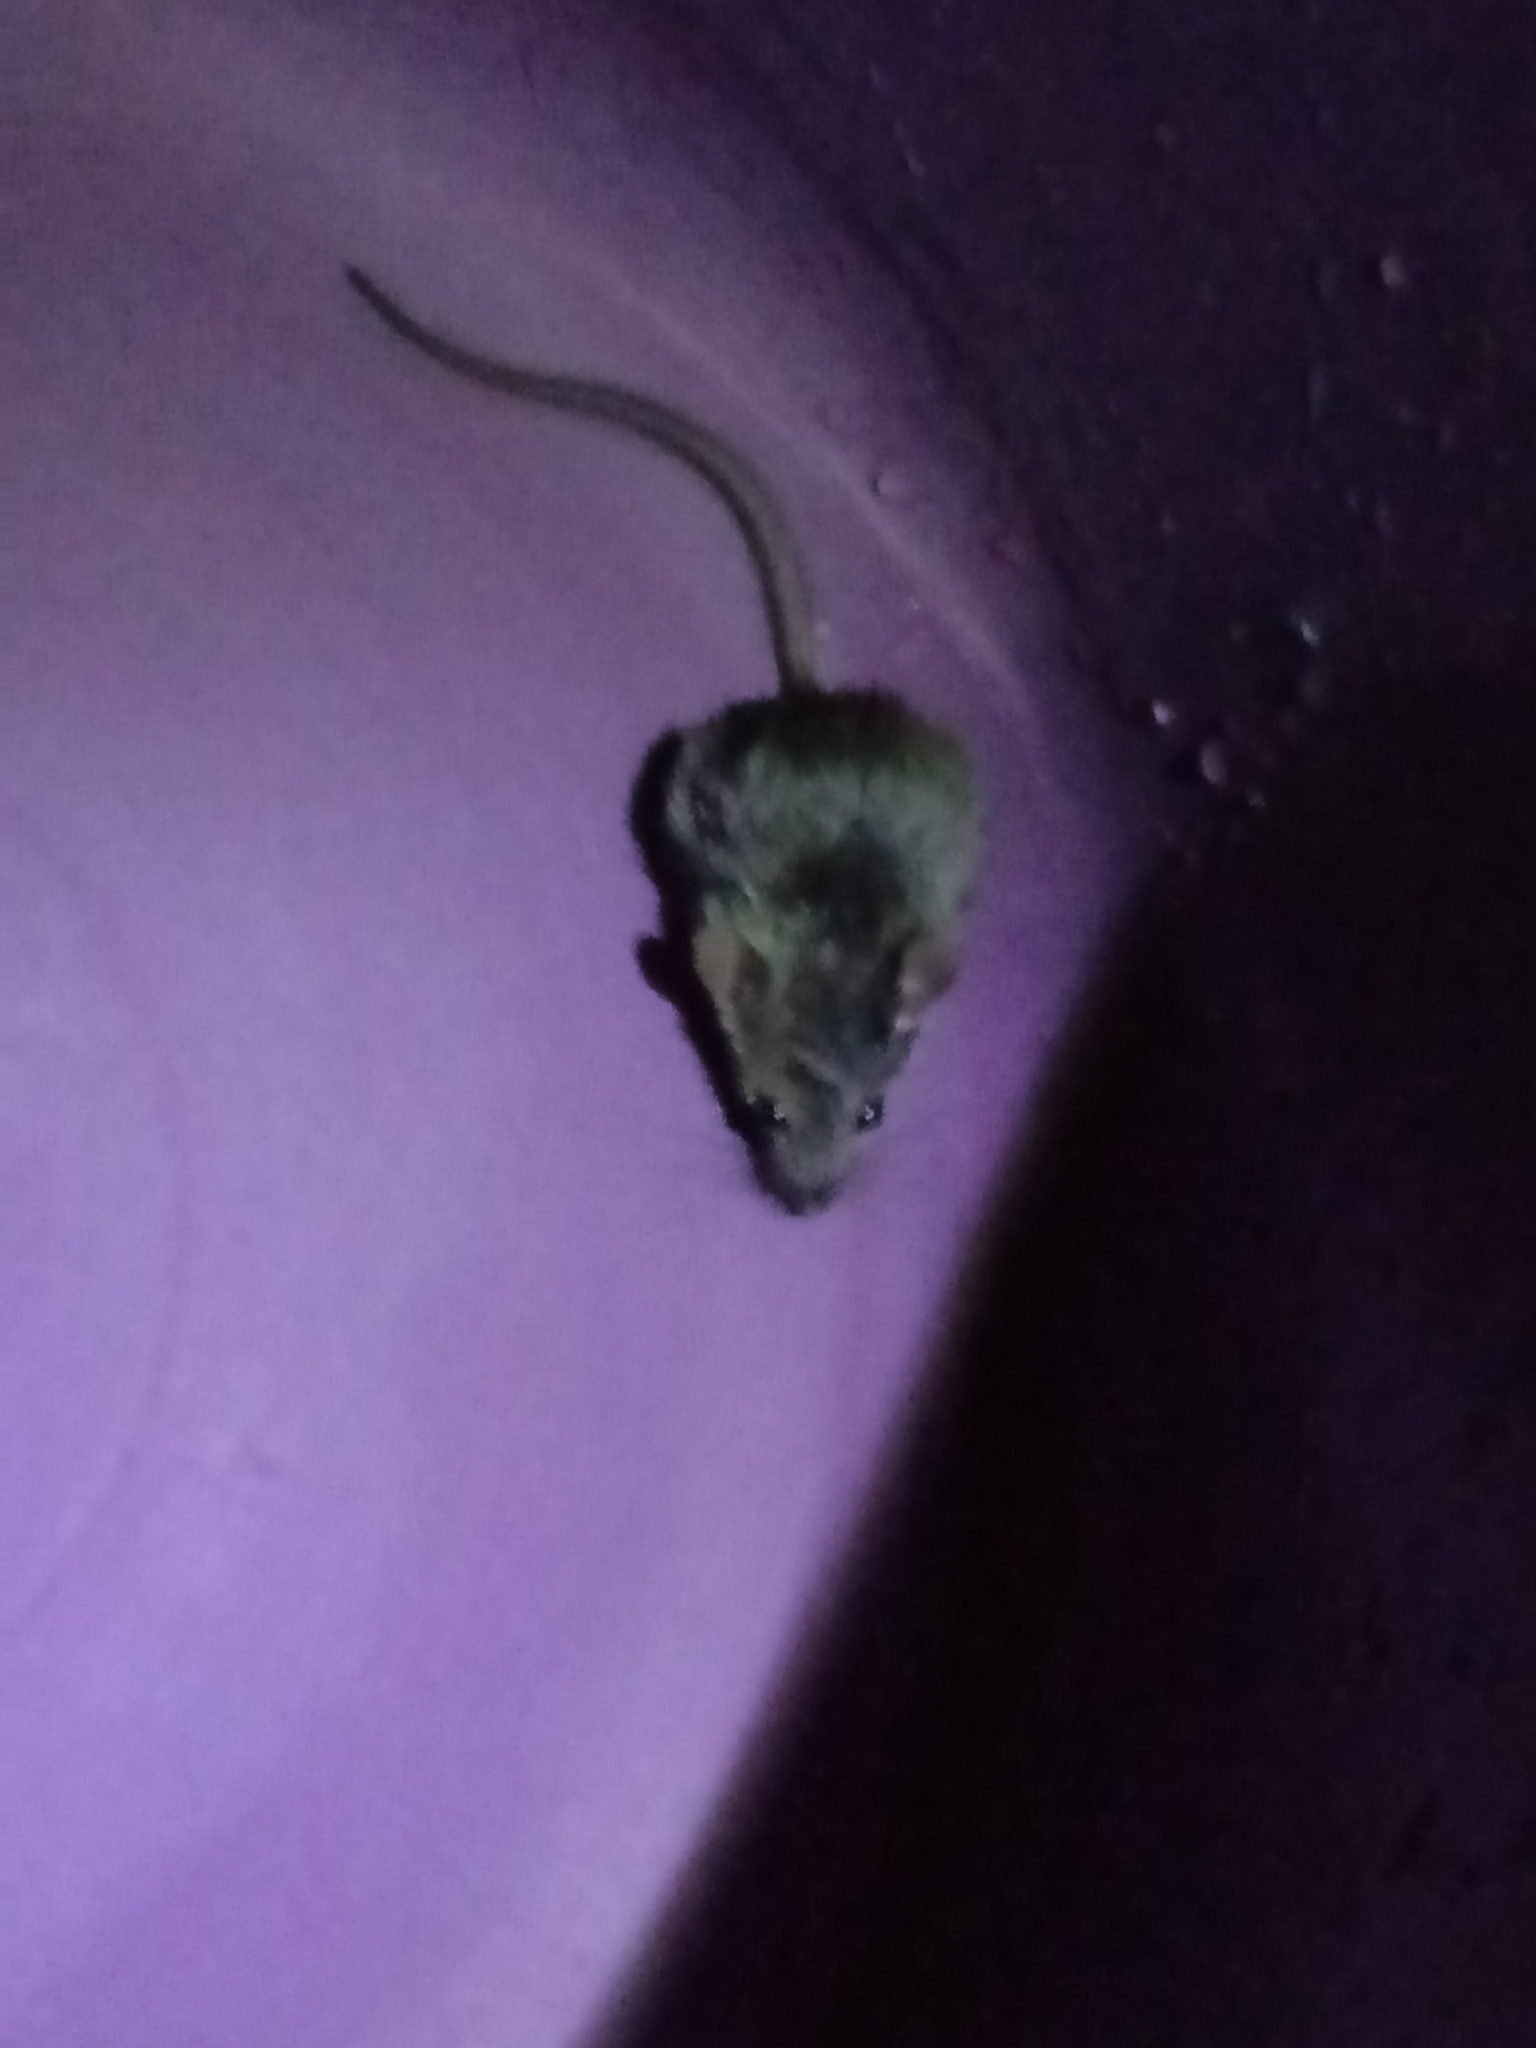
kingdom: Animalia
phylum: Chordata
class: Mammalia
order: Rodentia
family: Muridae
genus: Mus
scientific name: Mus musculus
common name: House mouse
